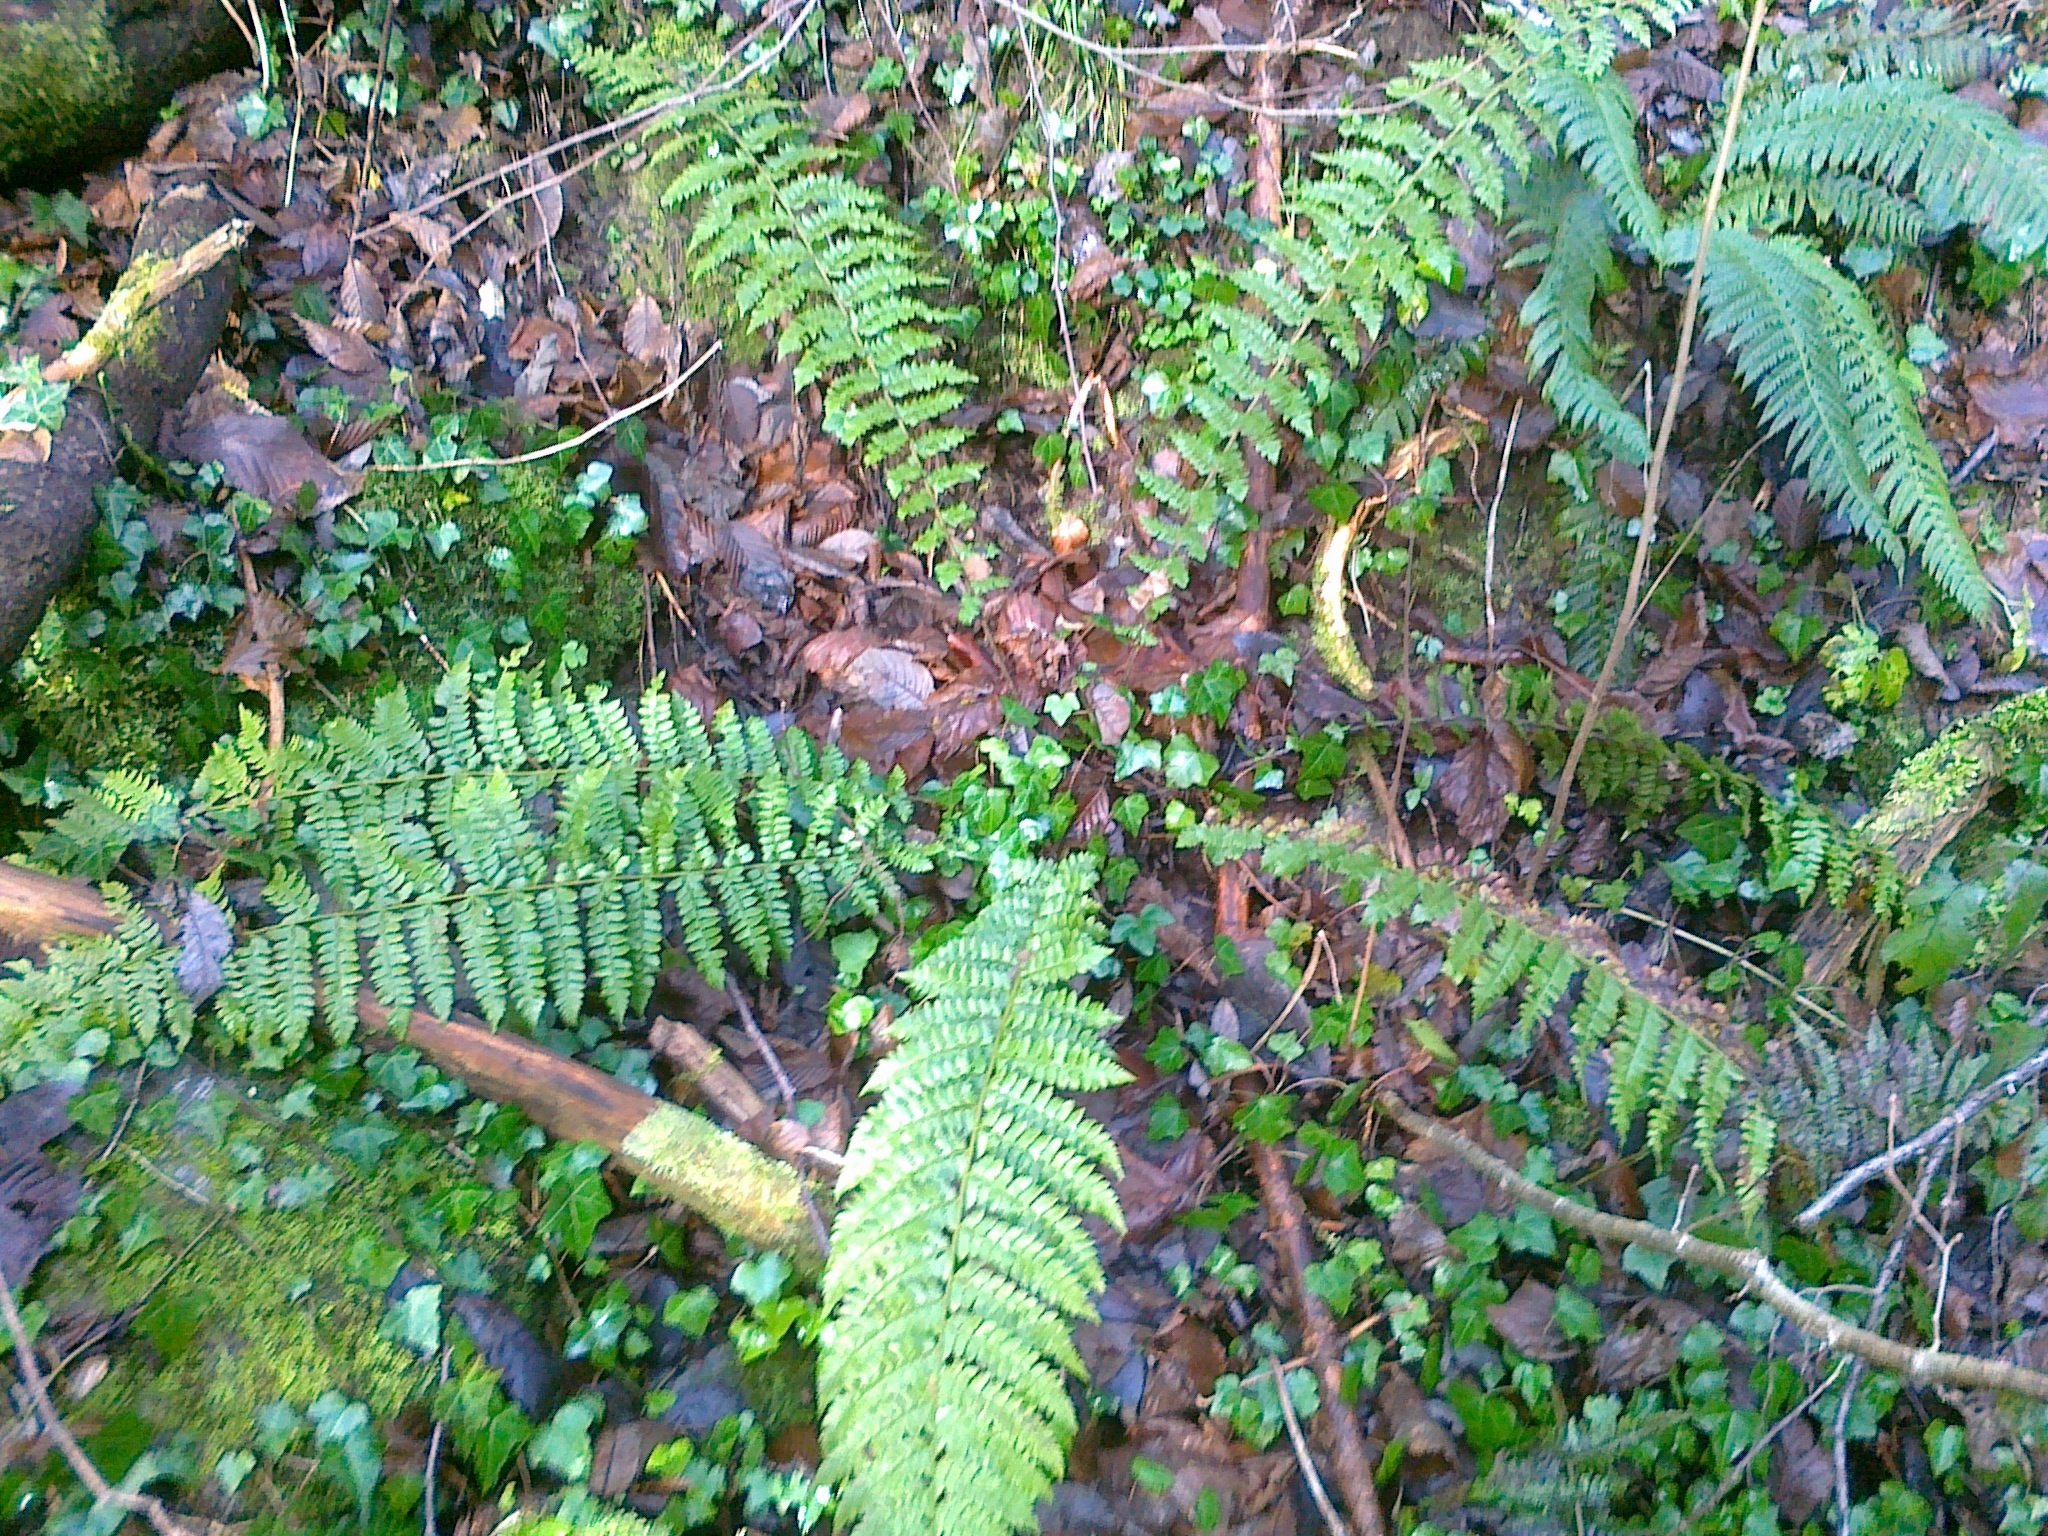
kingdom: Plantae
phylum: Tracheophyta
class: Polypodiopsida
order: Polypodiales
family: Dryopteridaceae
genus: Polystichum
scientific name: Polystichum braunii
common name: Braun's holly fern
